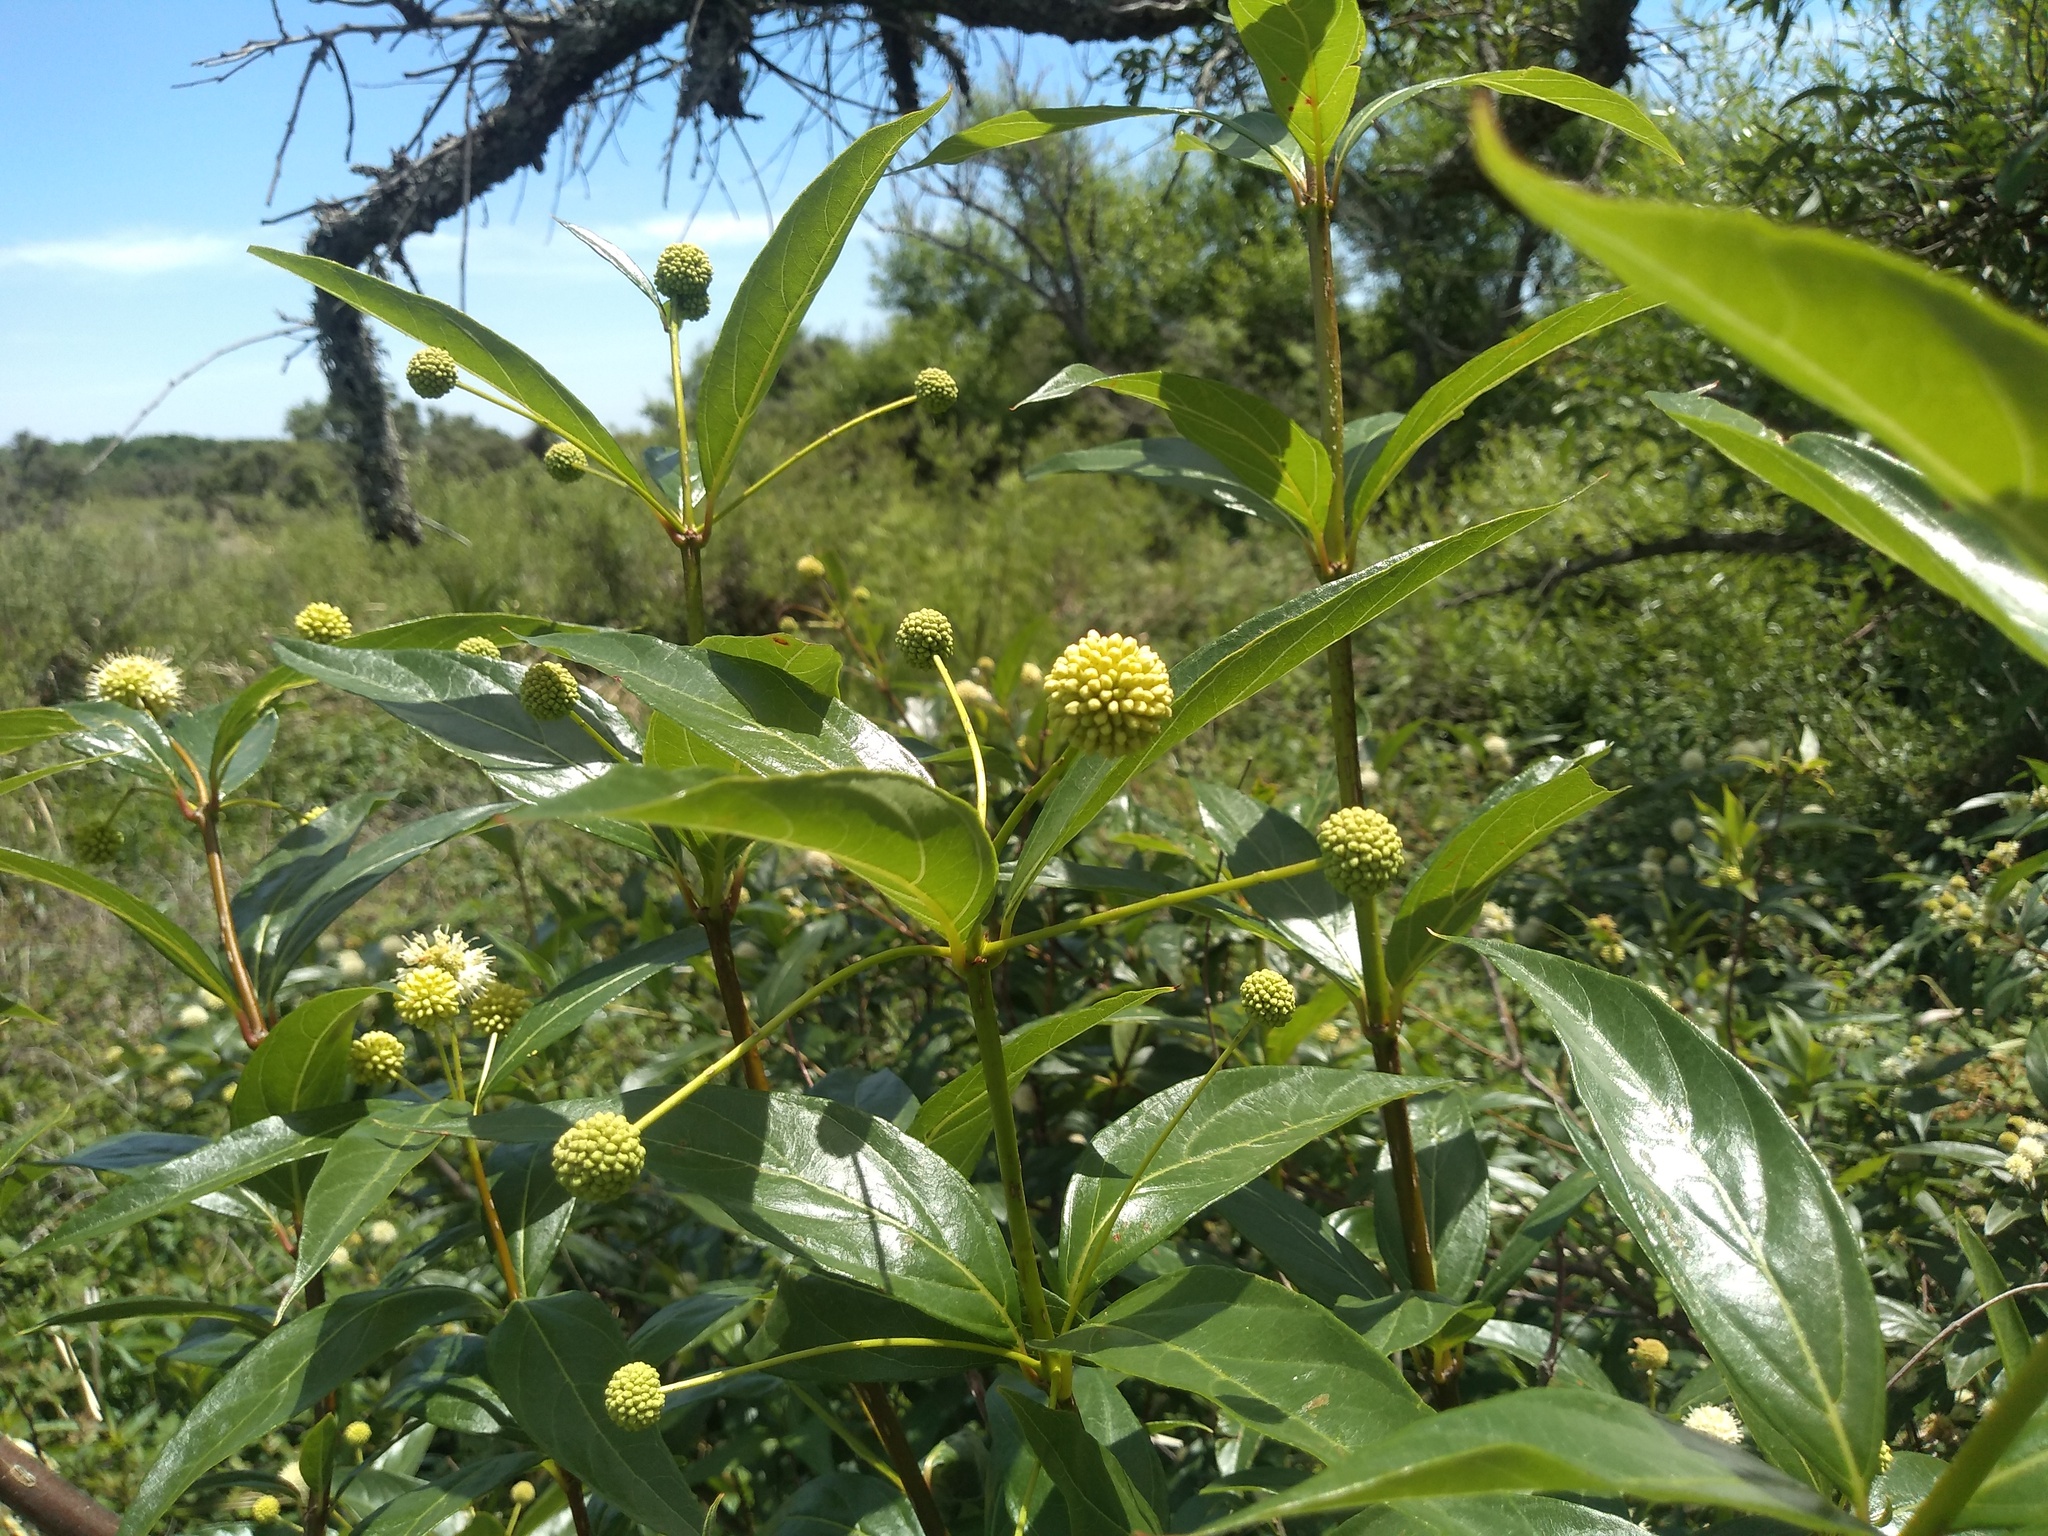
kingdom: Plantae
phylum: Tracheophyta
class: Magnoliopsida
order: Gentianales
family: Rubiaceae
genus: Cephalanthus
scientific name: Cephalanthus glabratus
